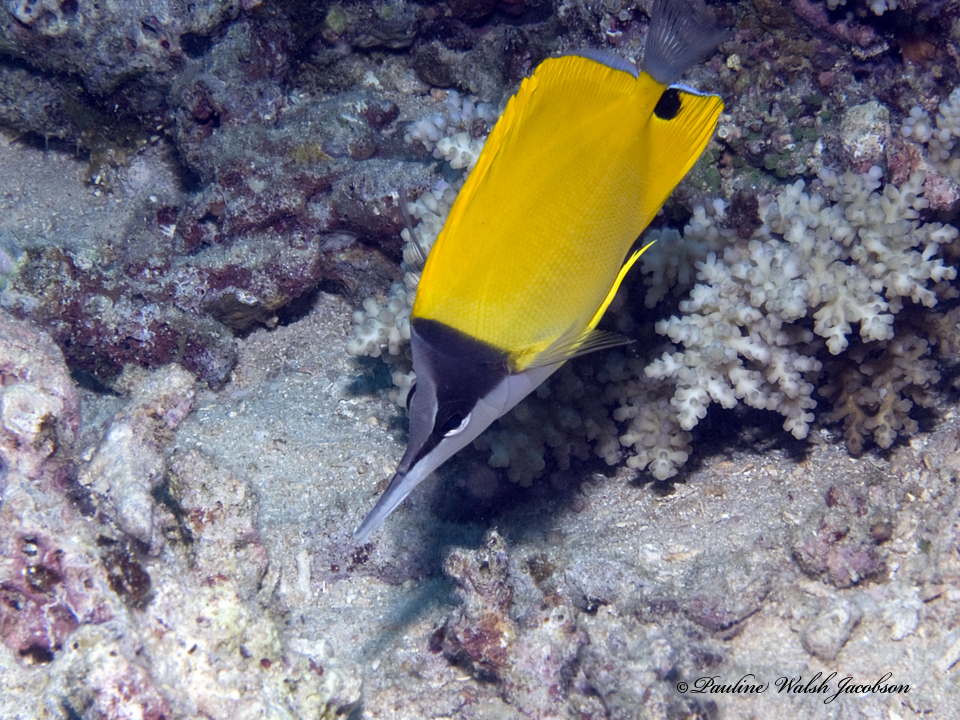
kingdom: Animalia
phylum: Chordata
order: Perciformes
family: Chaetodontidae
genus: Forcipiger
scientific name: Forcipiger flavissimus
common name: Forcepsfish
